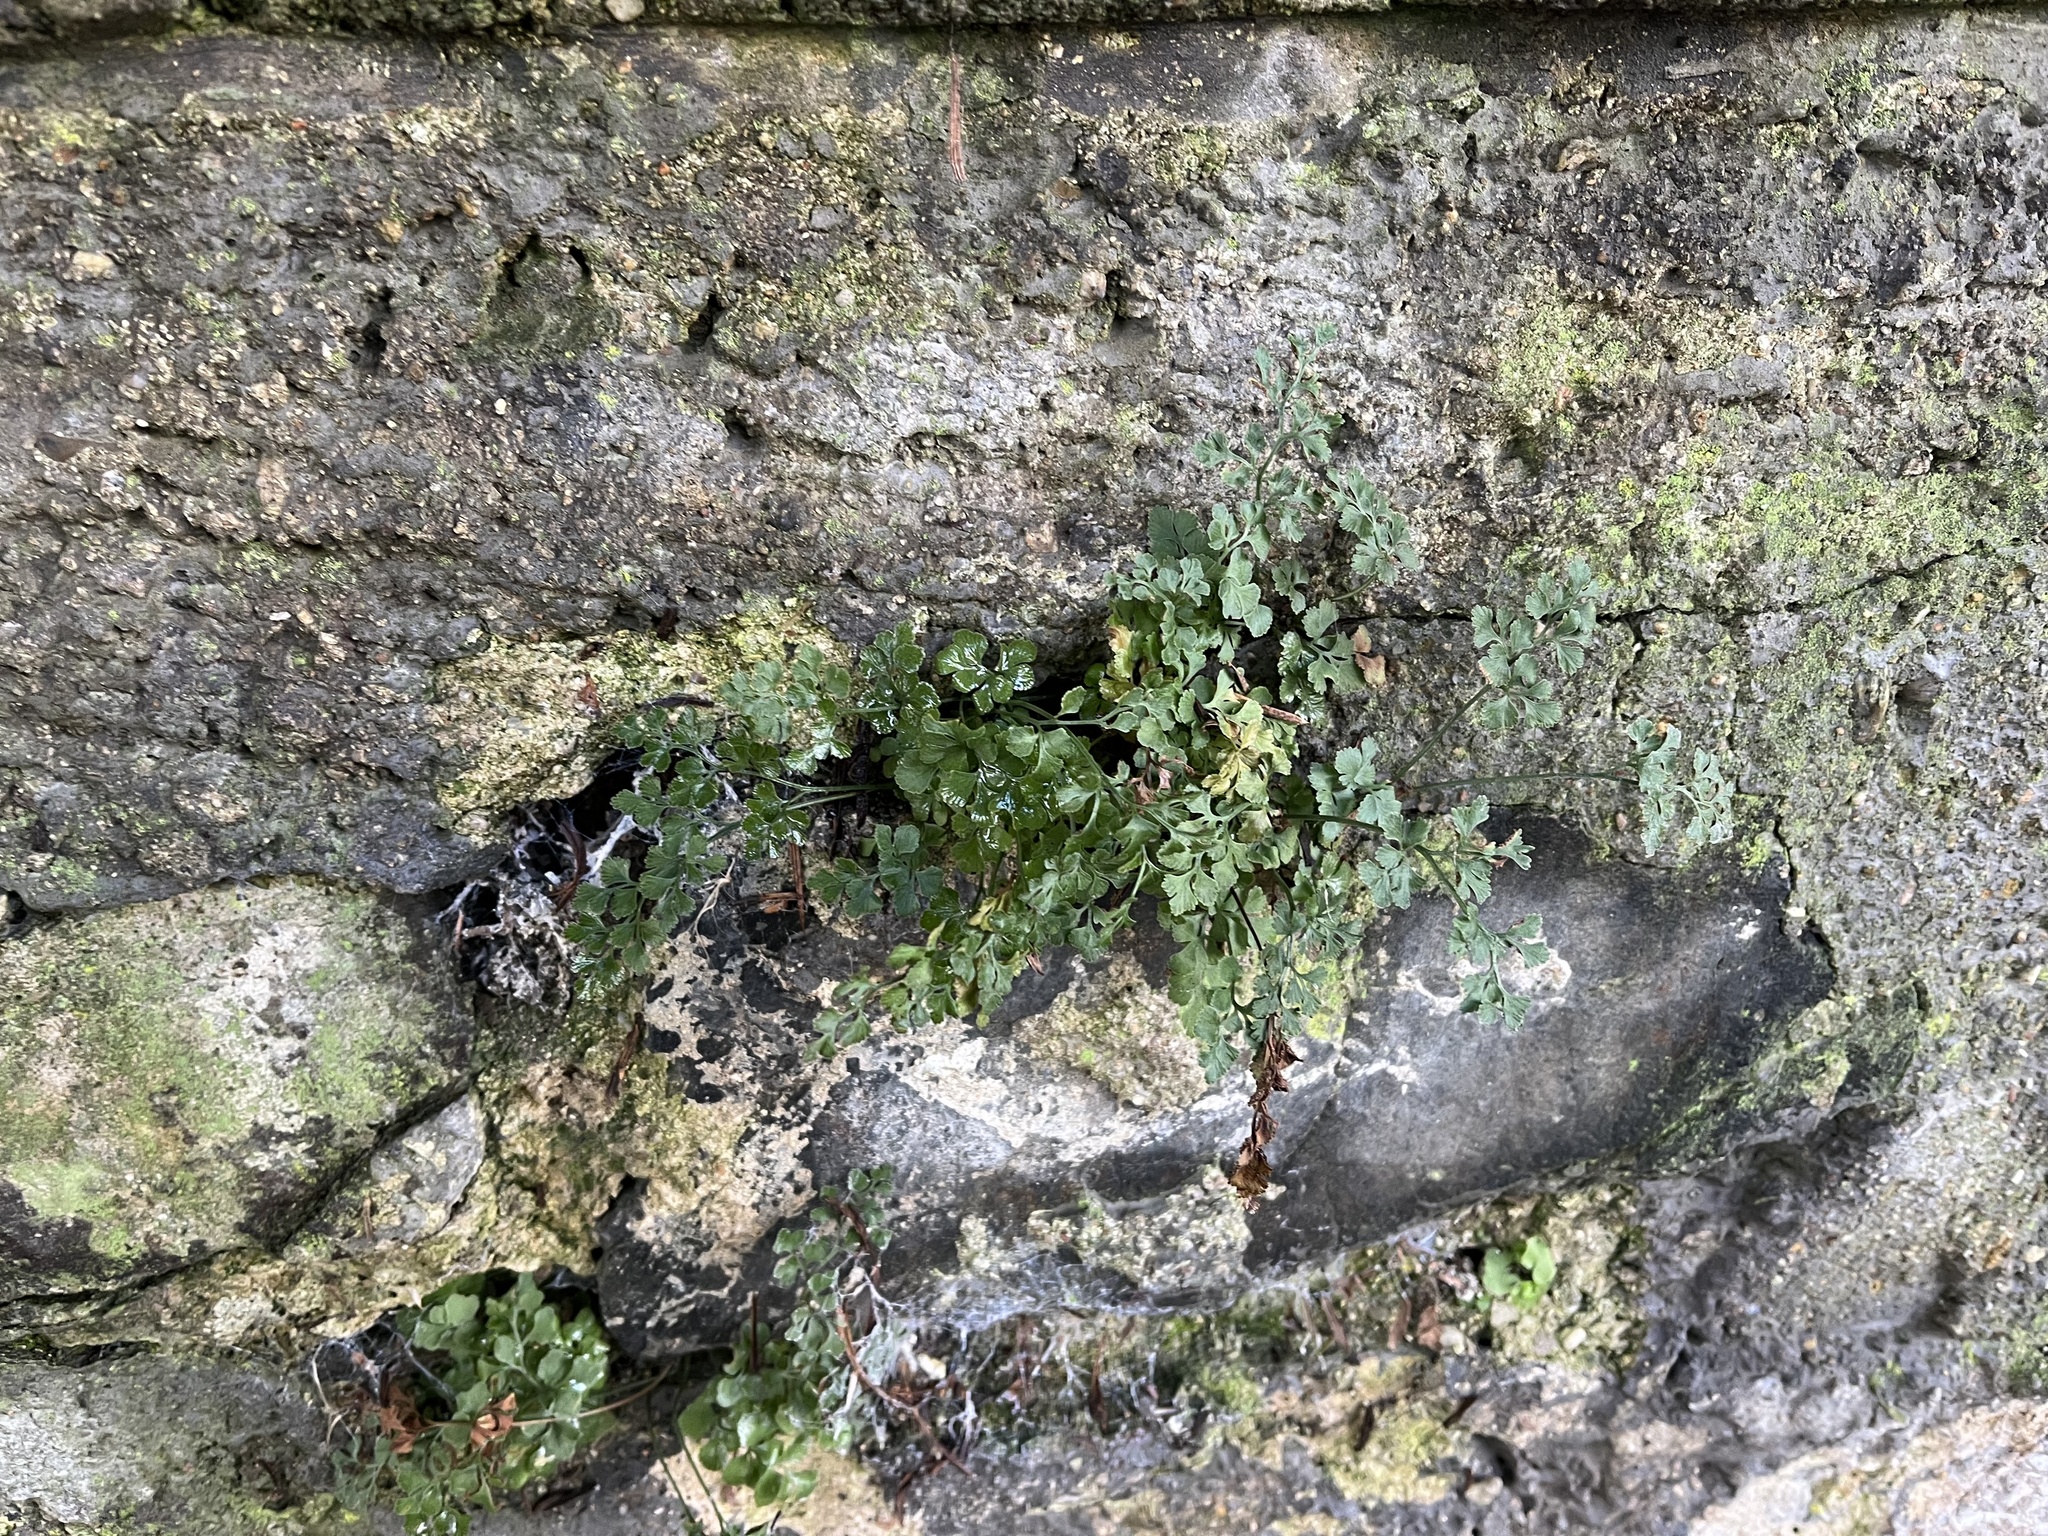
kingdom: Plantae
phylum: Tracheophyta
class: Polypodiopsida
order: Polypodiales
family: Aspleniaceae
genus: Asplenium
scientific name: Asplenium ruta-muraria
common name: Wall-rue
